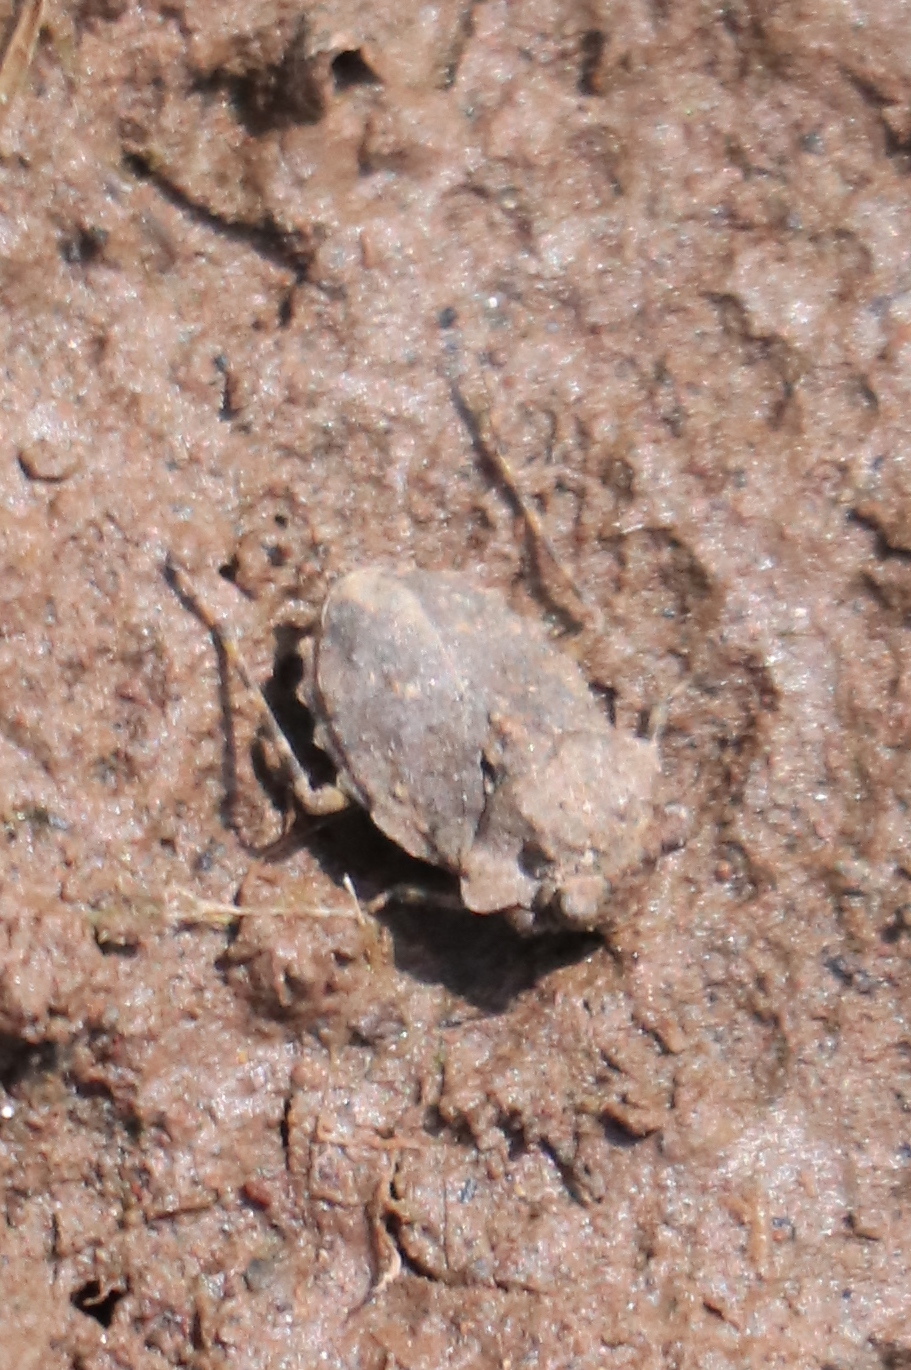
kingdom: Animalia
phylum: Arthropoda
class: Insecta
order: Hemiptera
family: Gelastocoridae
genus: Gelastocoris
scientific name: Gelastocoris oculatus
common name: Toad bug
